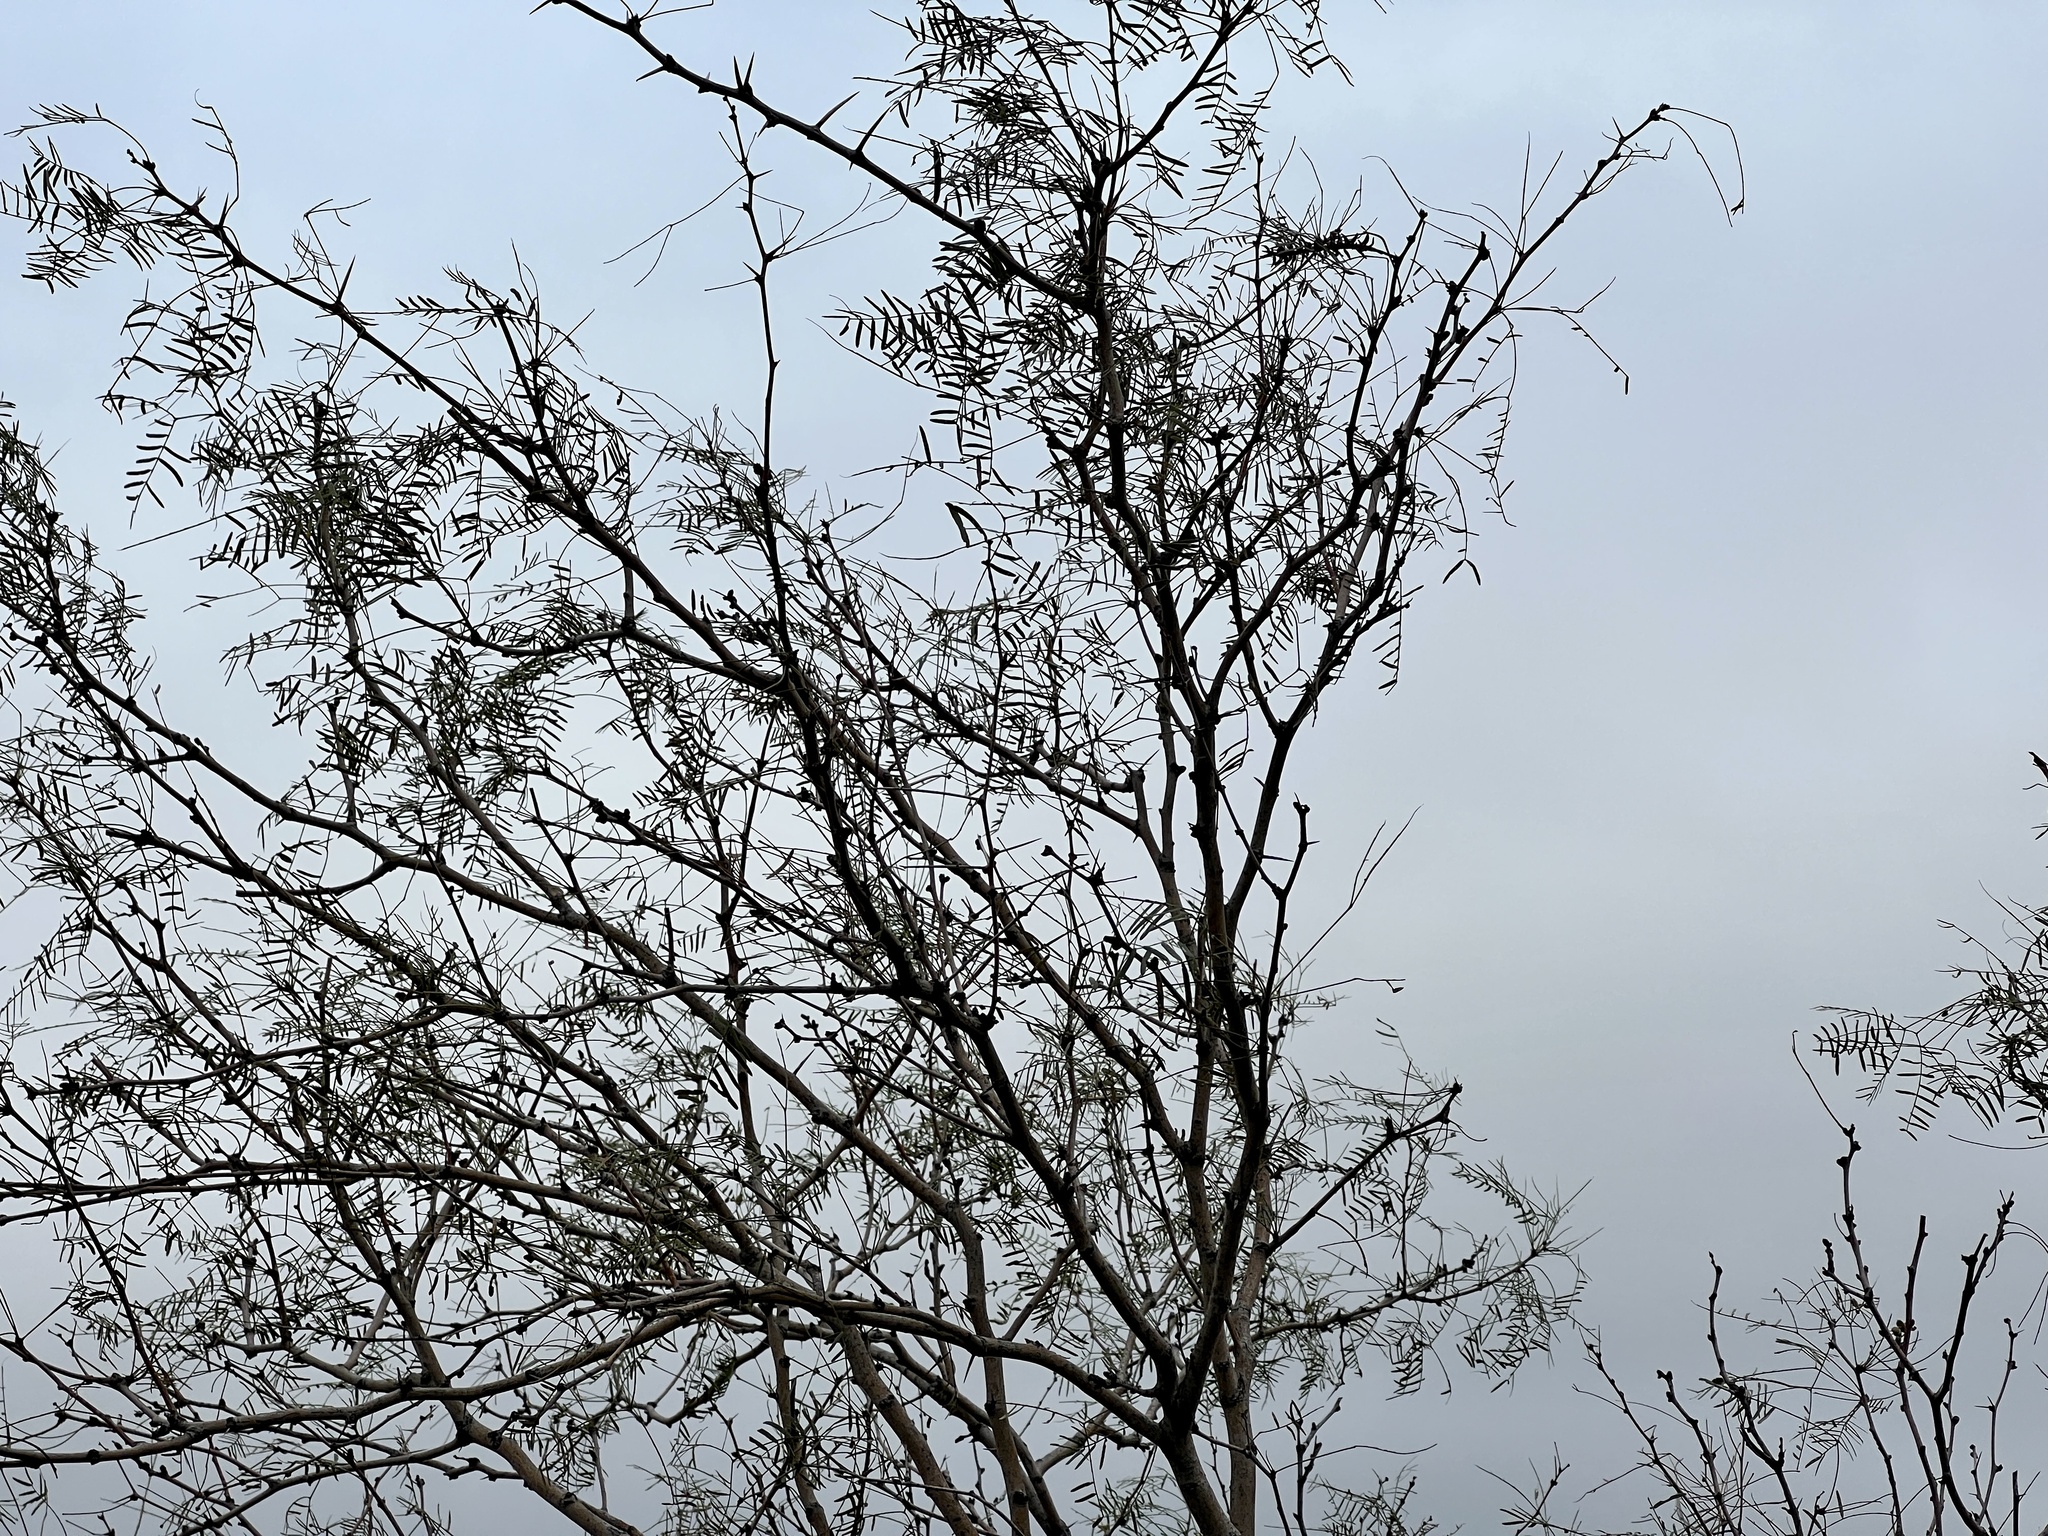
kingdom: Plantae
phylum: Tracheophyta
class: Magnoliopsida
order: Fabales
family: Fabaceae
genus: Prosopis
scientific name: Prosopis glandulosa
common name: Honey mesquite
